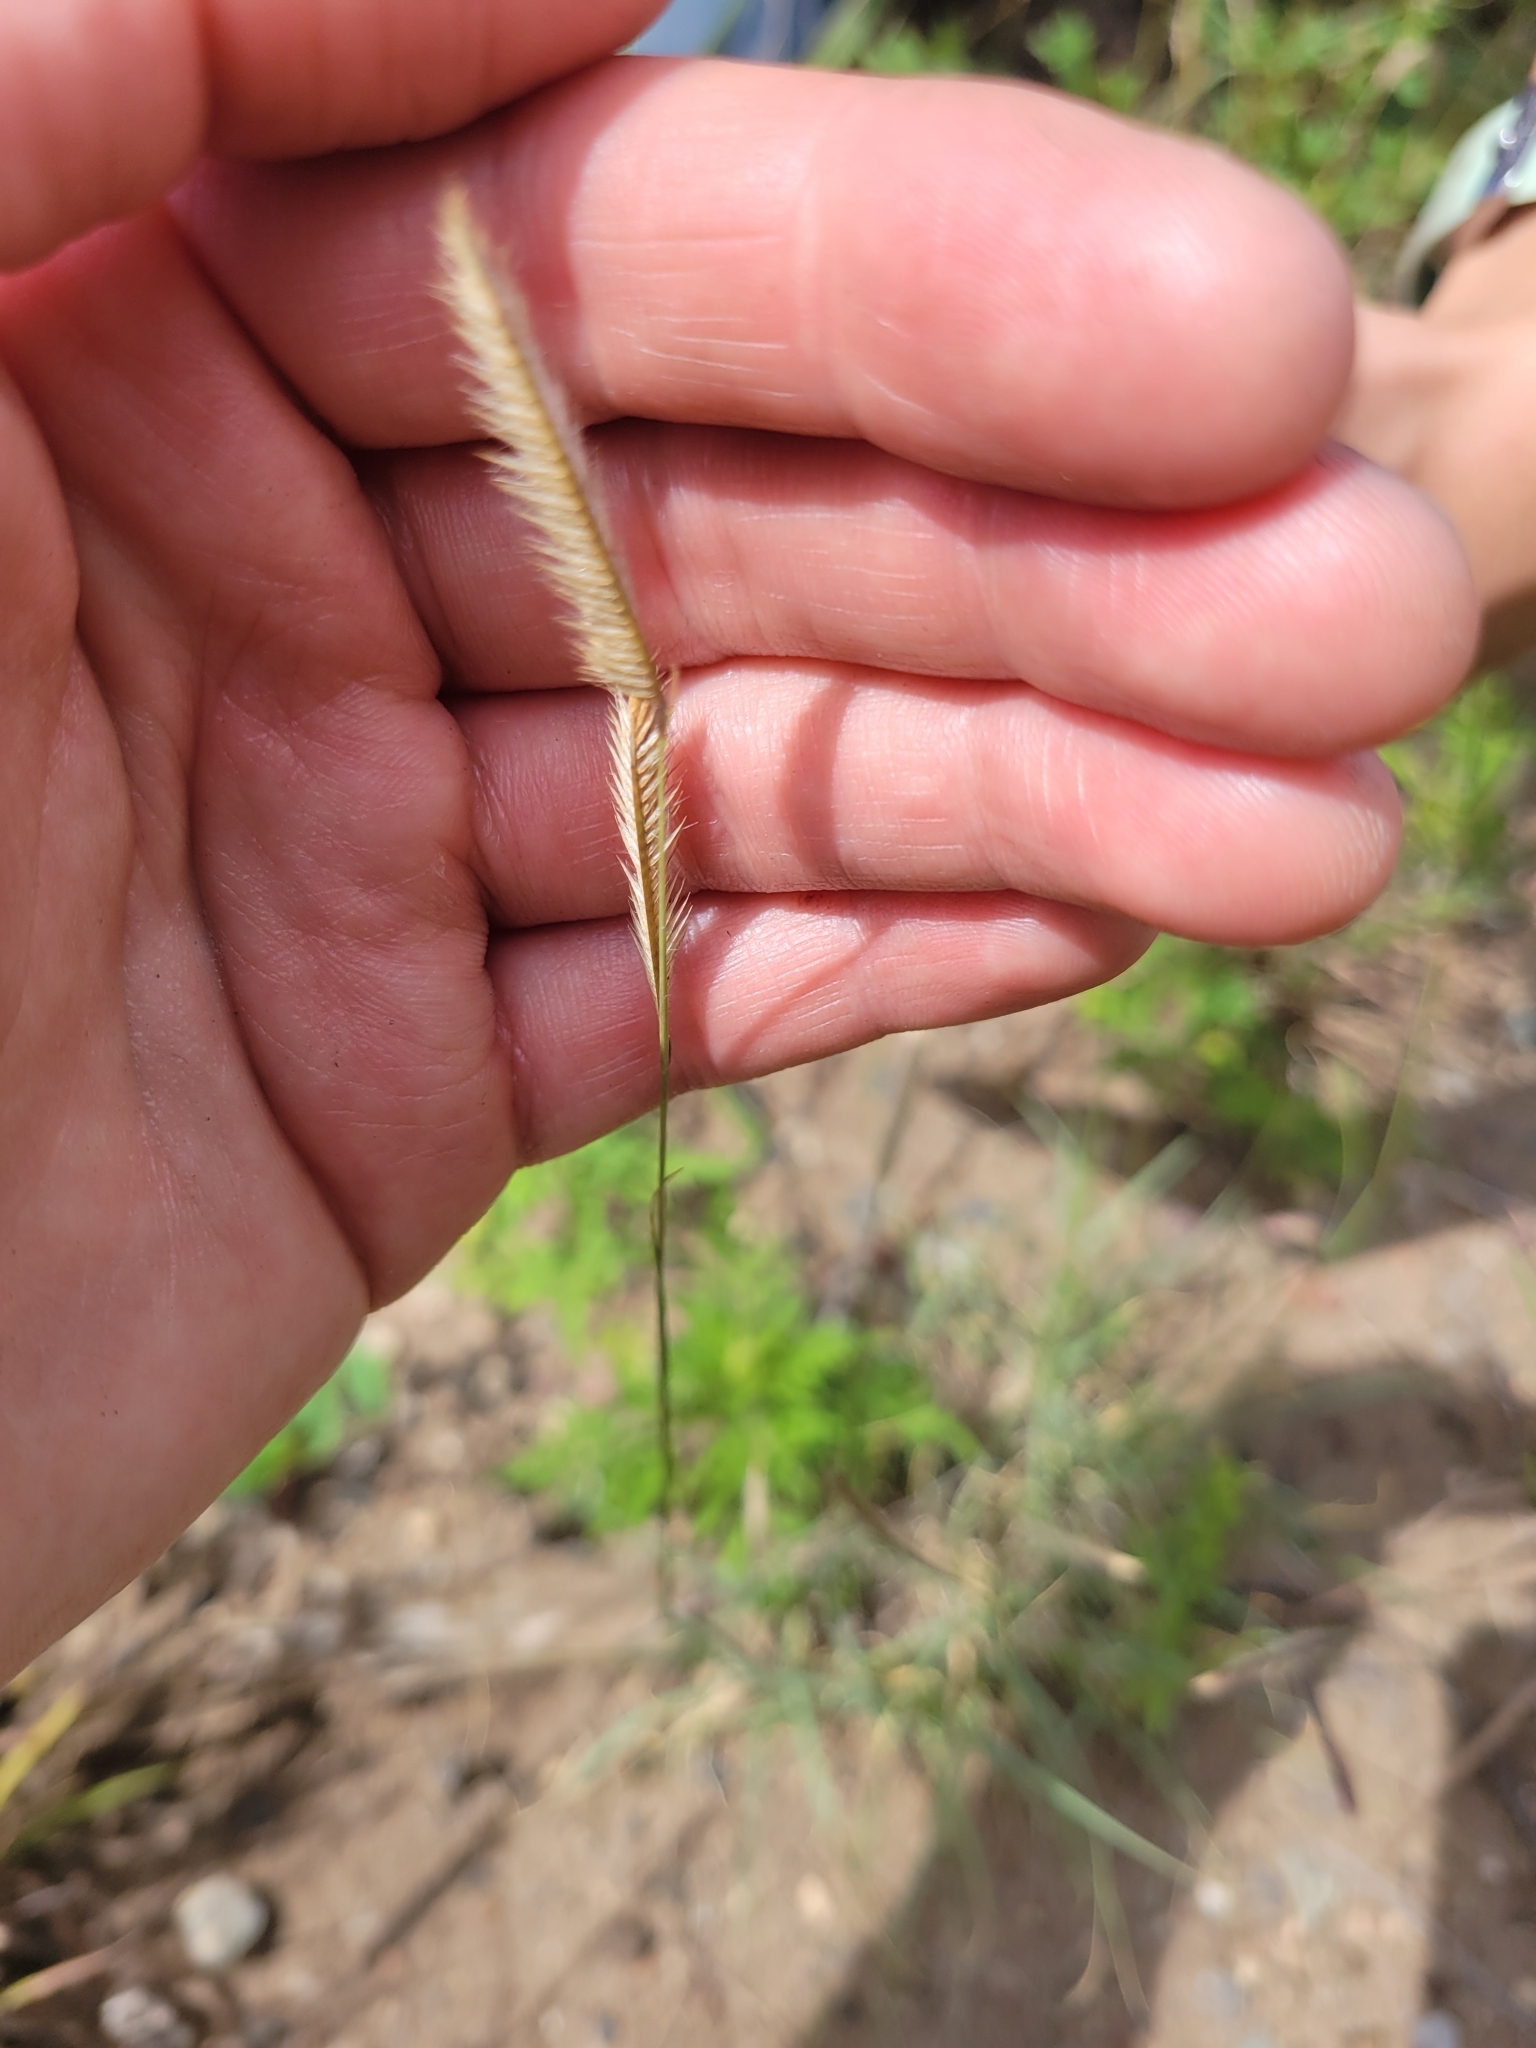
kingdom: Plantae
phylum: Tracheophyta
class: Liliopsida
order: Poales
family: Poaceae
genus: Bouteloua
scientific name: Bouteloua gracilis
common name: Blue grama
